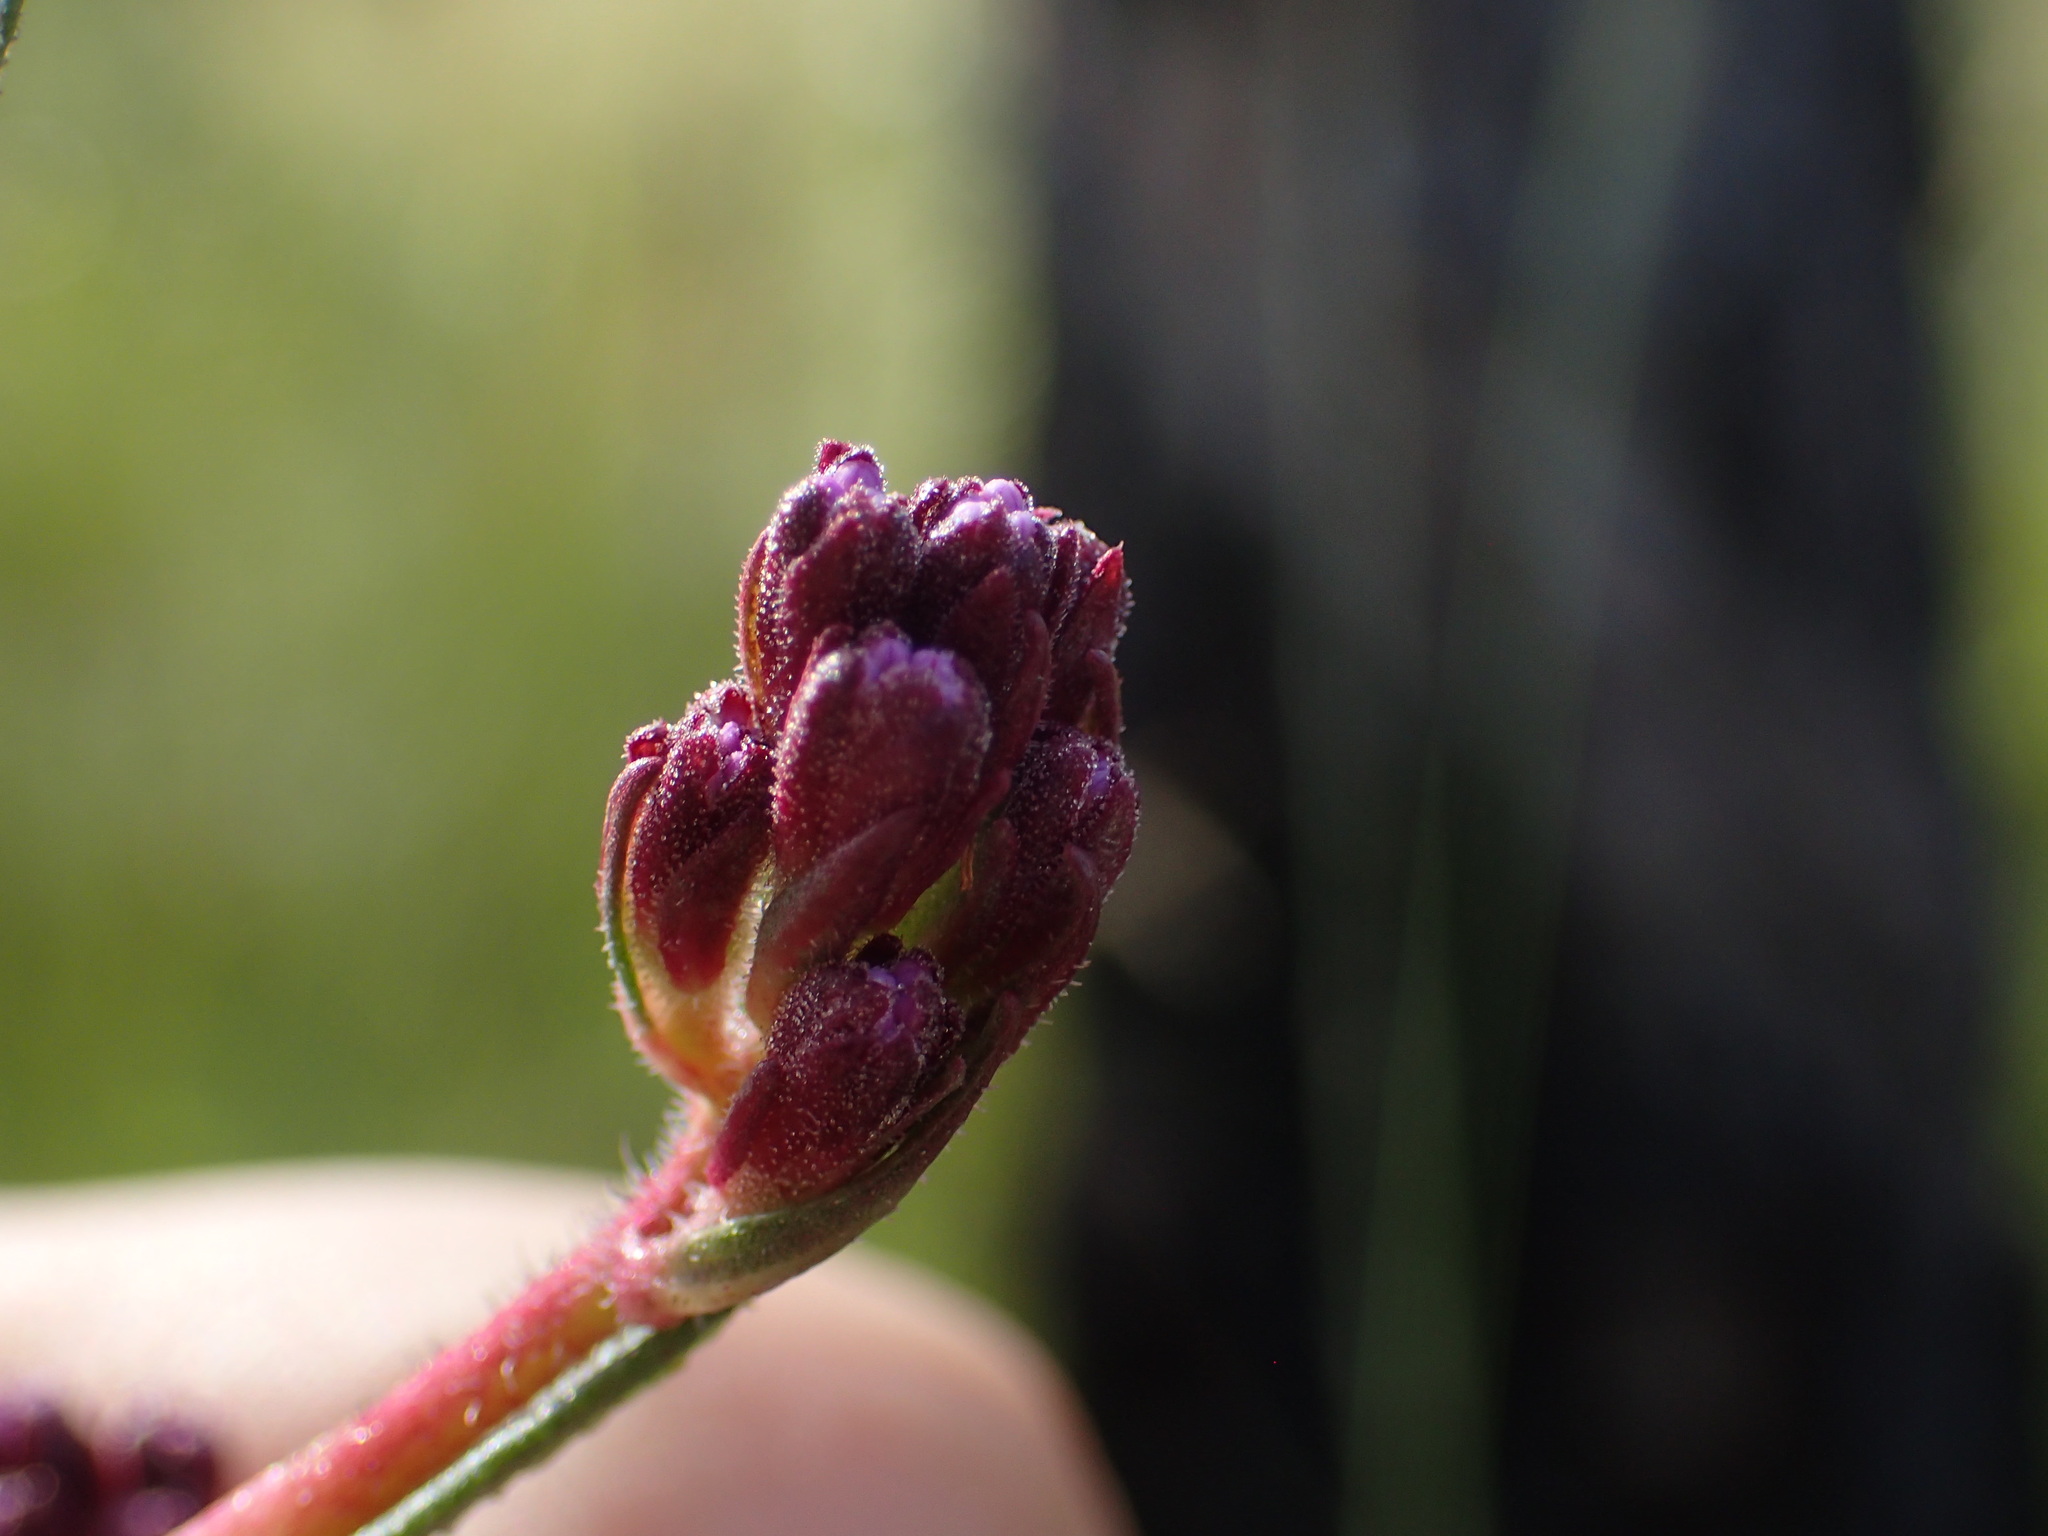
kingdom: Plantae
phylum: Tracheophyta
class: Magnoliopsida
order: Asterales
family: Asteraceae
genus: Carphephorus
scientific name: Carphephorus paniculatus
